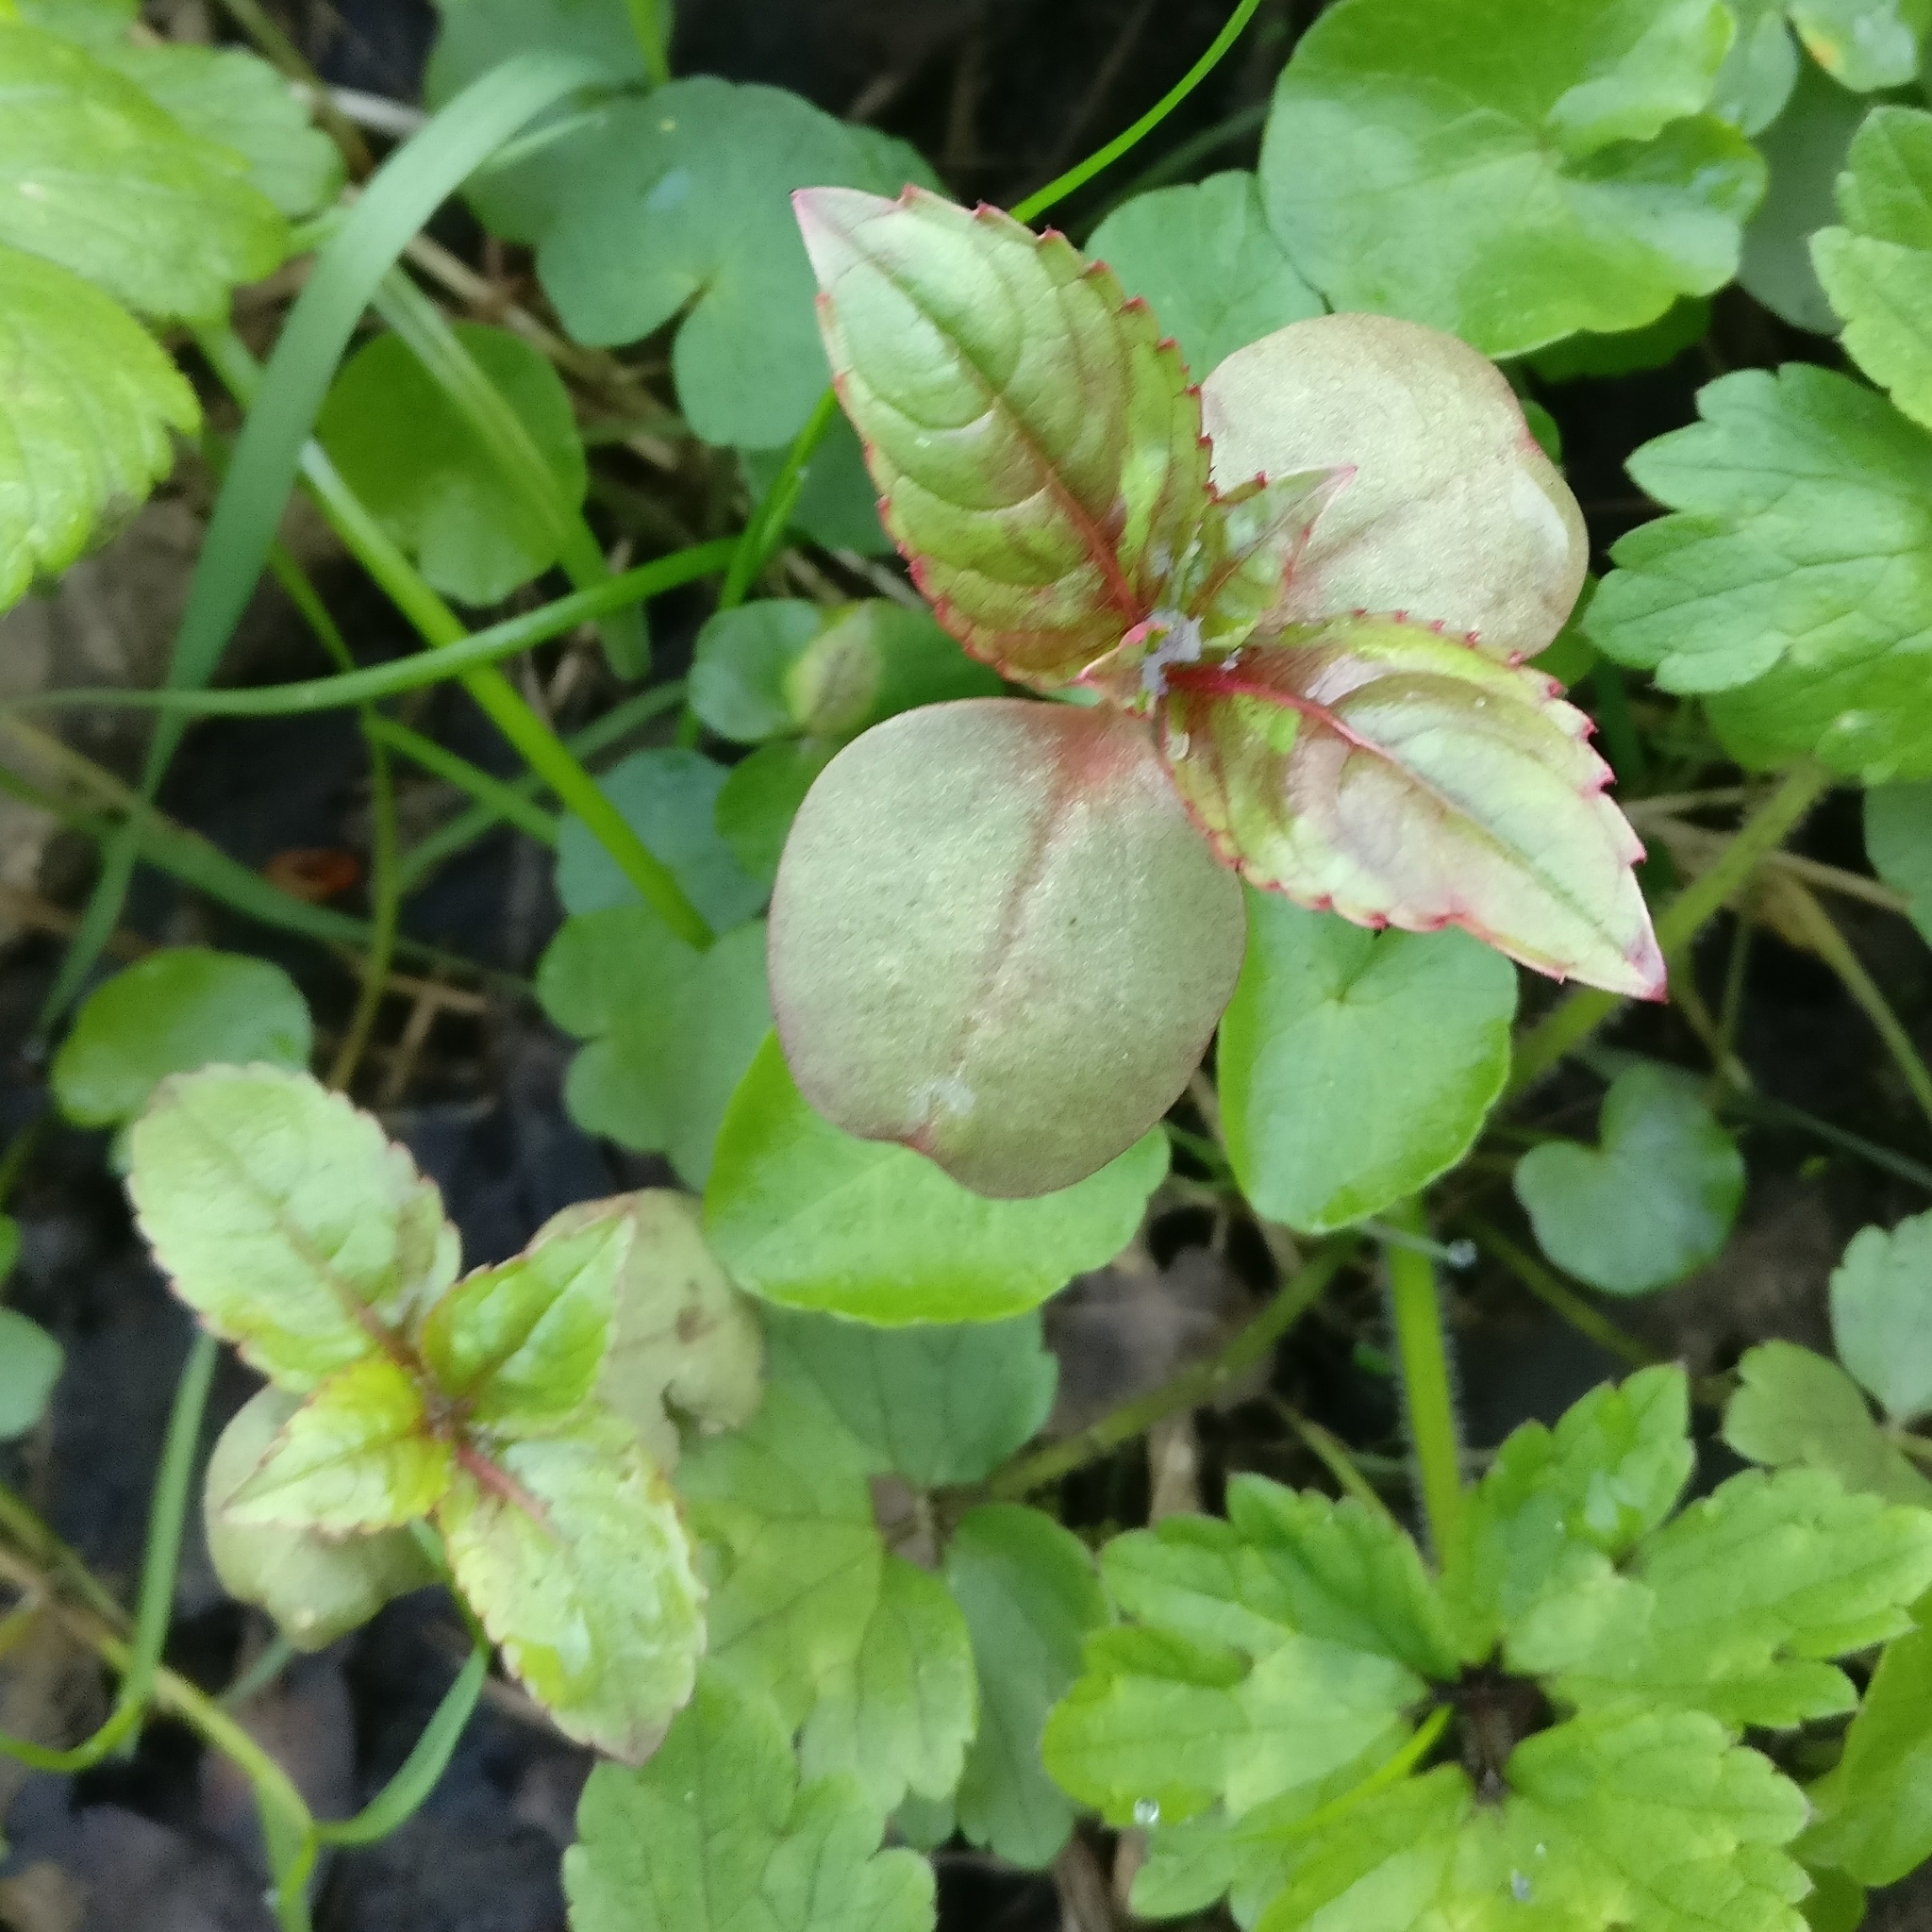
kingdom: Plantae
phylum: Tracheophyta
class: Magnoliopsida
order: Ericales
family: Balsaminaceae
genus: Impatiens
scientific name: Impatiens glandulifera
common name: Himalayan balsam
